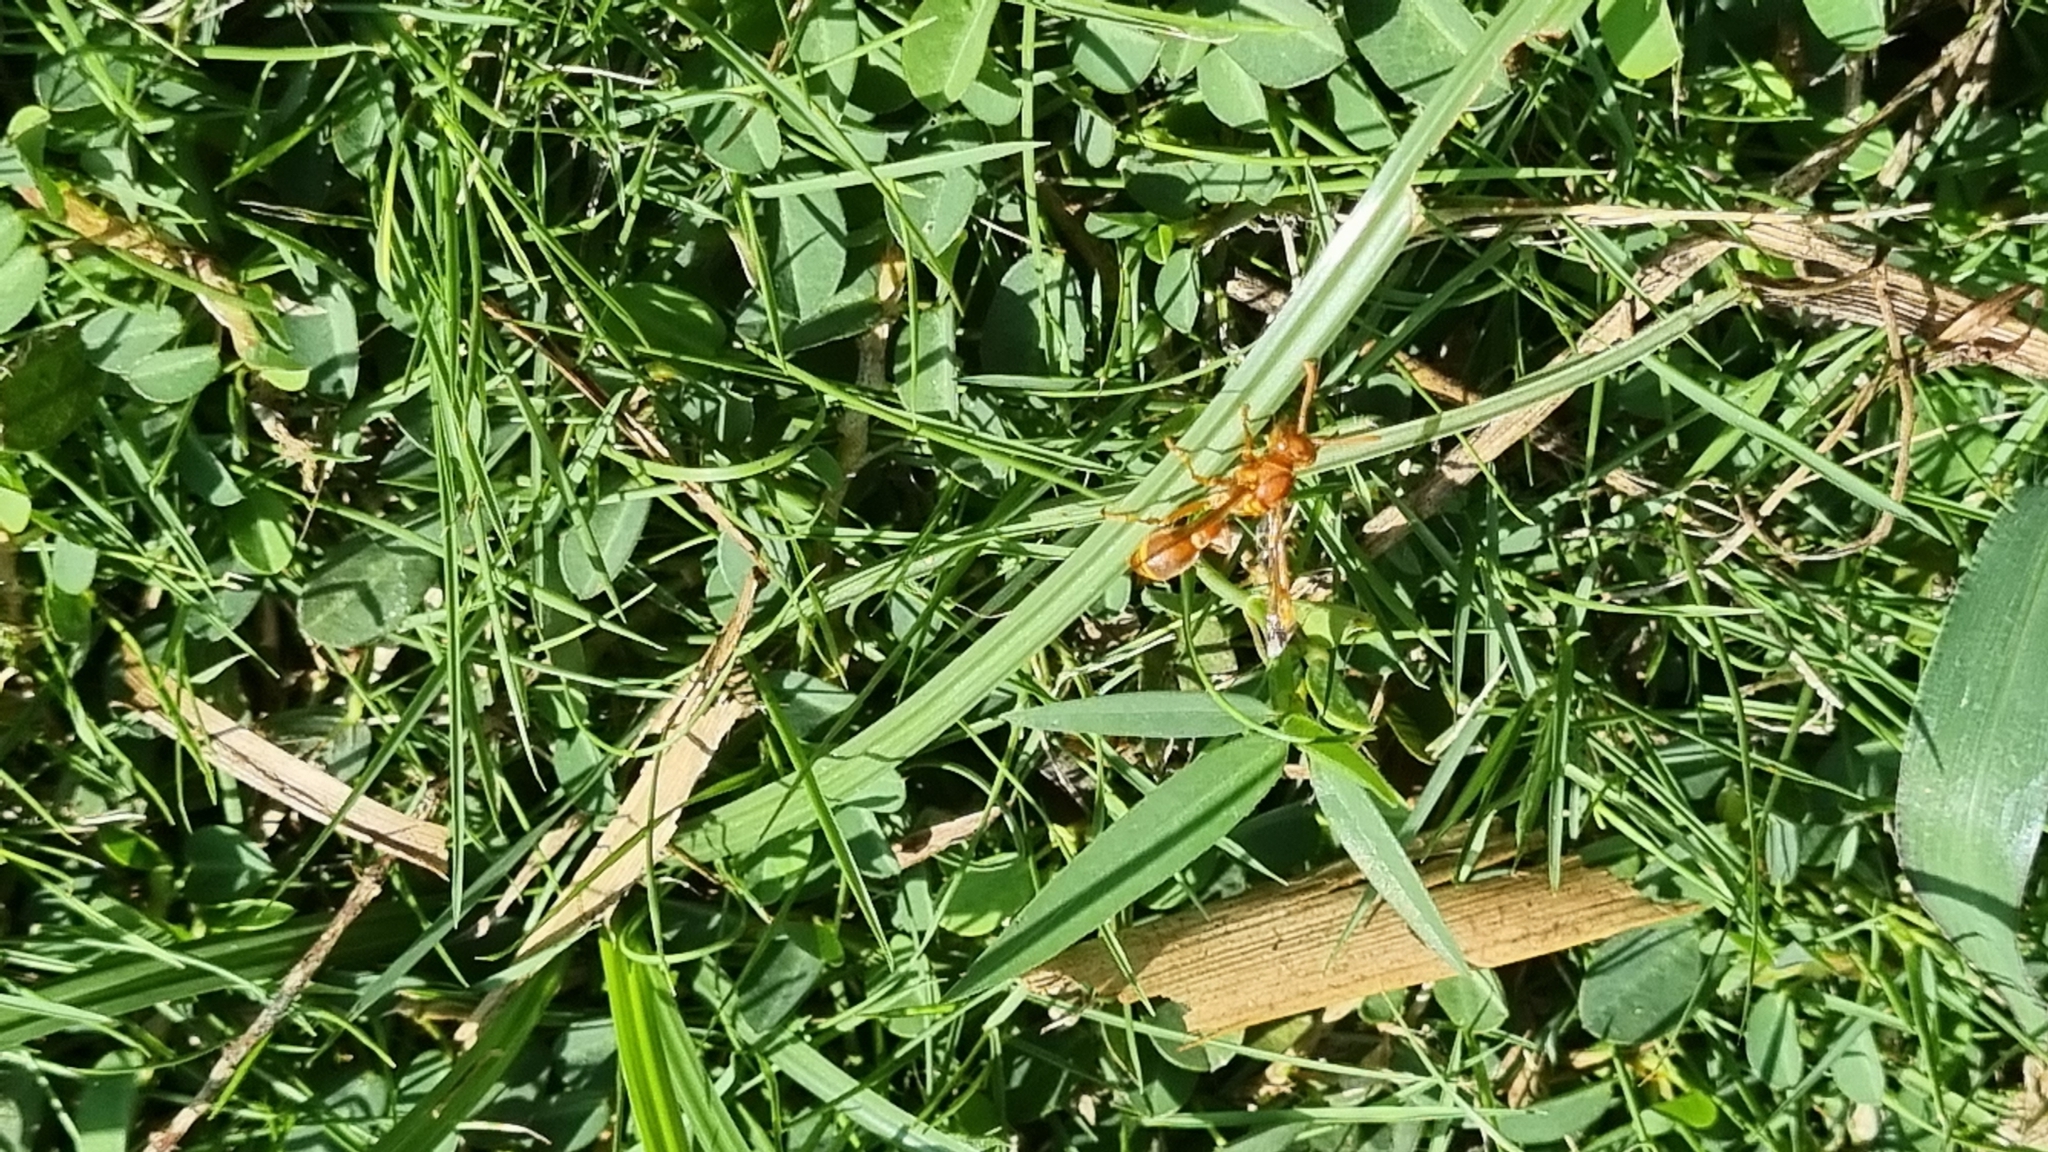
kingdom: Animalia
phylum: Arthropoda
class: Insecta
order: Hymenoptera
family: Vespidae
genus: Ropalidia
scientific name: Ropalidia marginata
